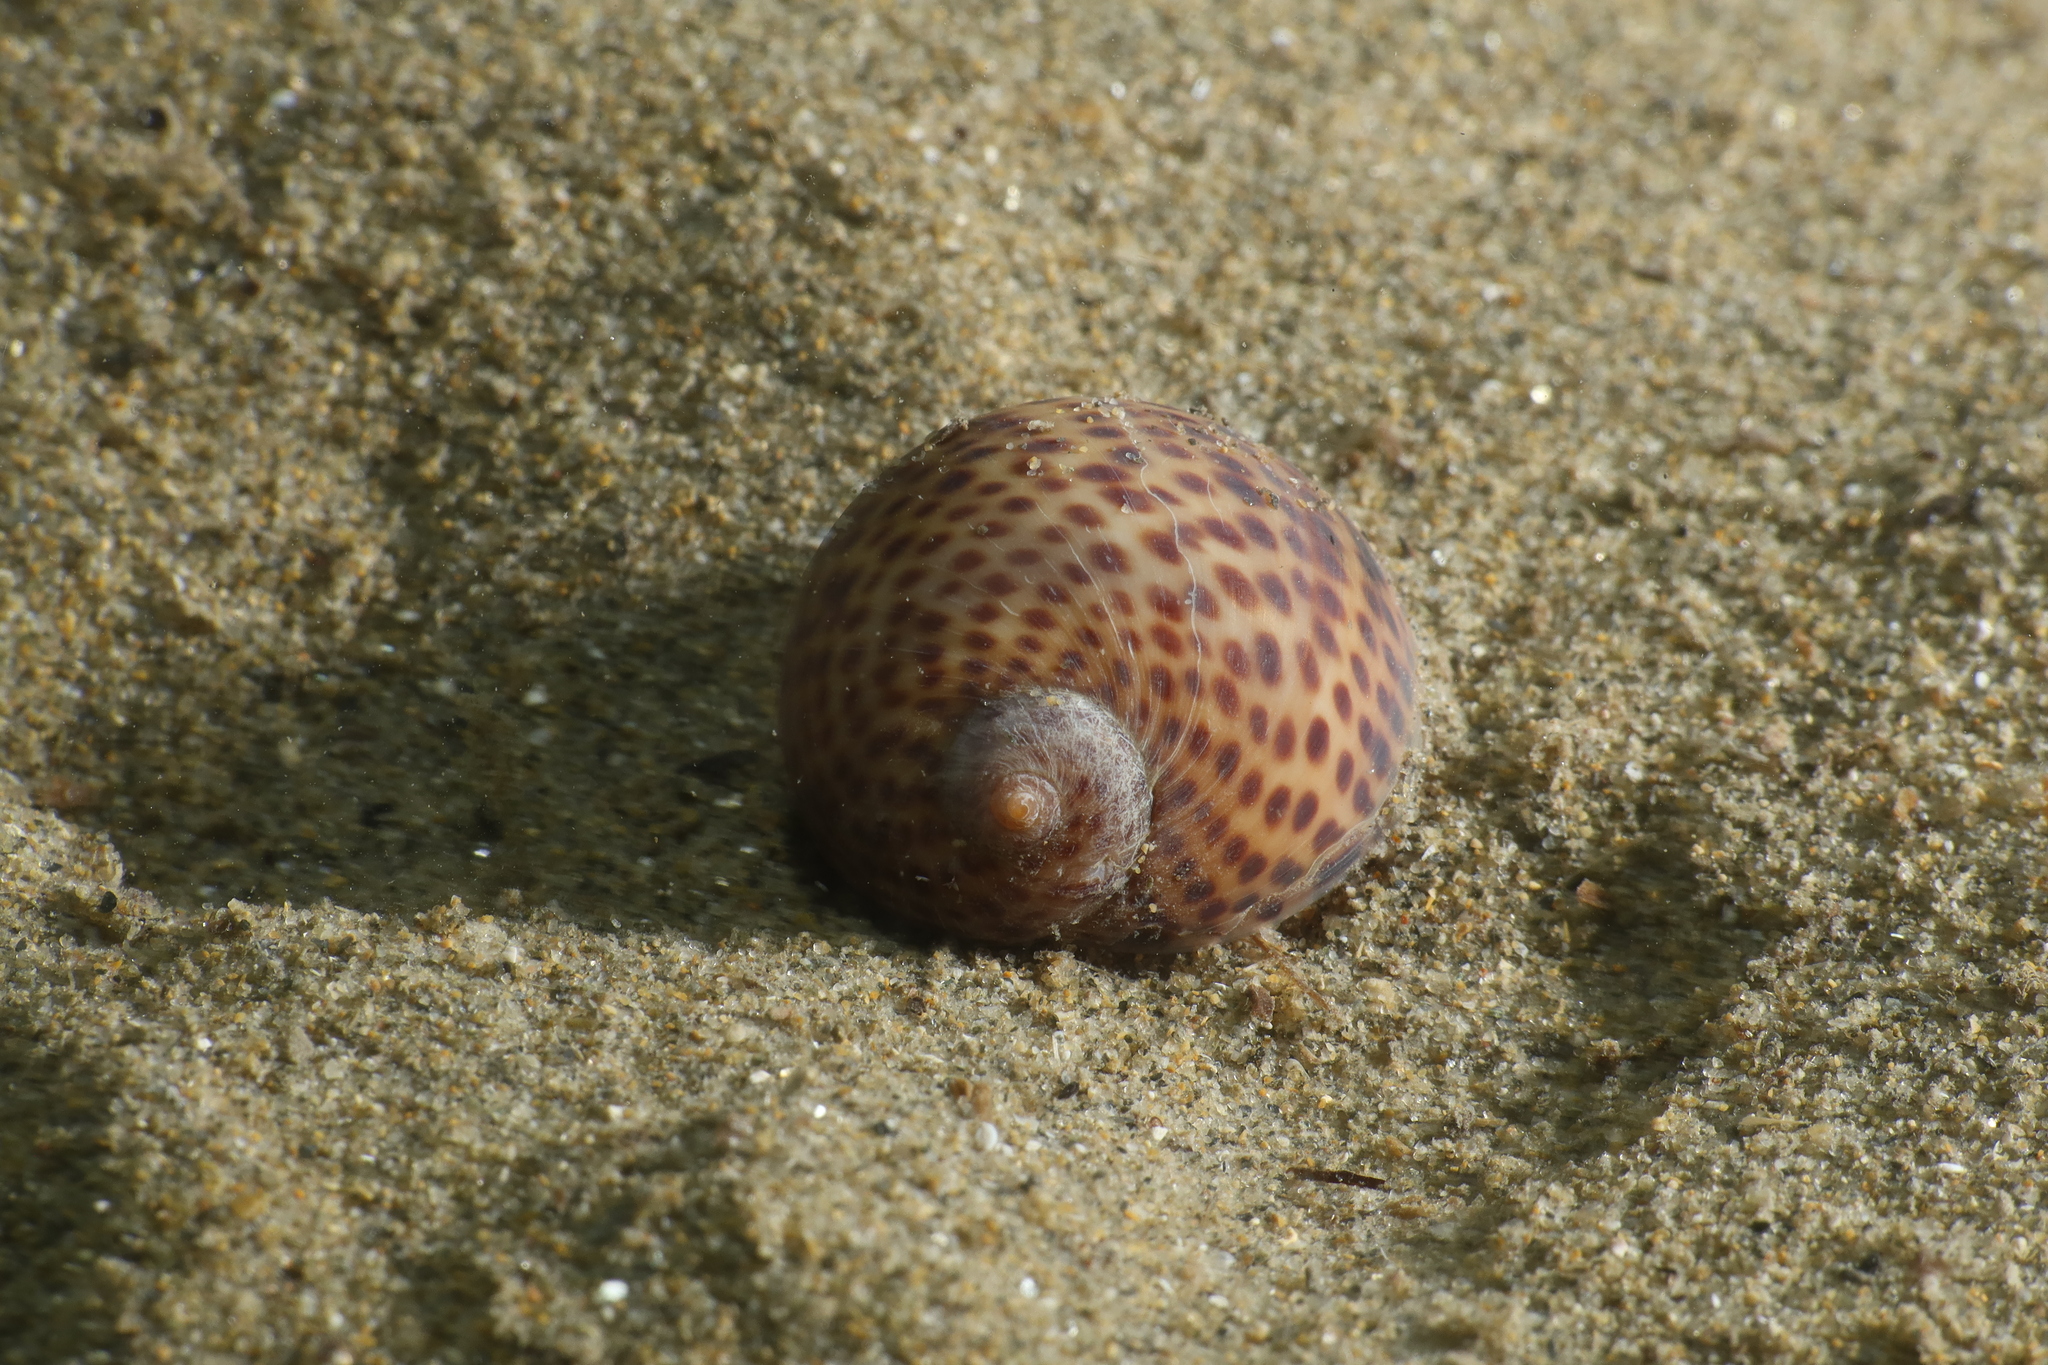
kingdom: Animalia
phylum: Mollusca
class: Gastropoda
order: Littorinimorpha
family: Naticidae
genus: Naticarius
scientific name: Naticarius stercusmuscarum
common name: Fly-speck moonsnail
